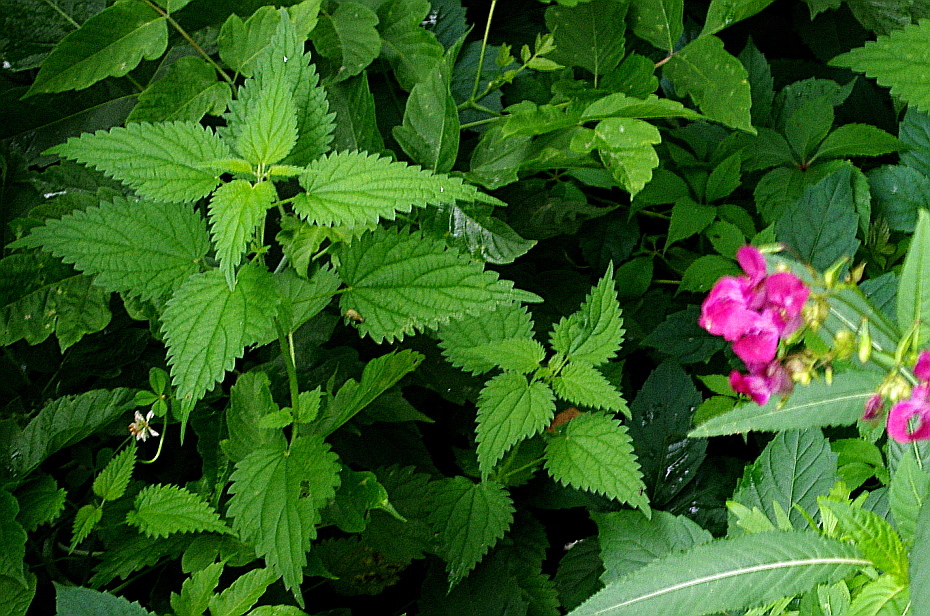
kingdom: Plantae
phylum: Tracheophyta
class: Magnoliopsida
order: Rosales
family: Urticaceae
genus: Urtica
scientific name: Urtica dioica
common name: Common nettle
